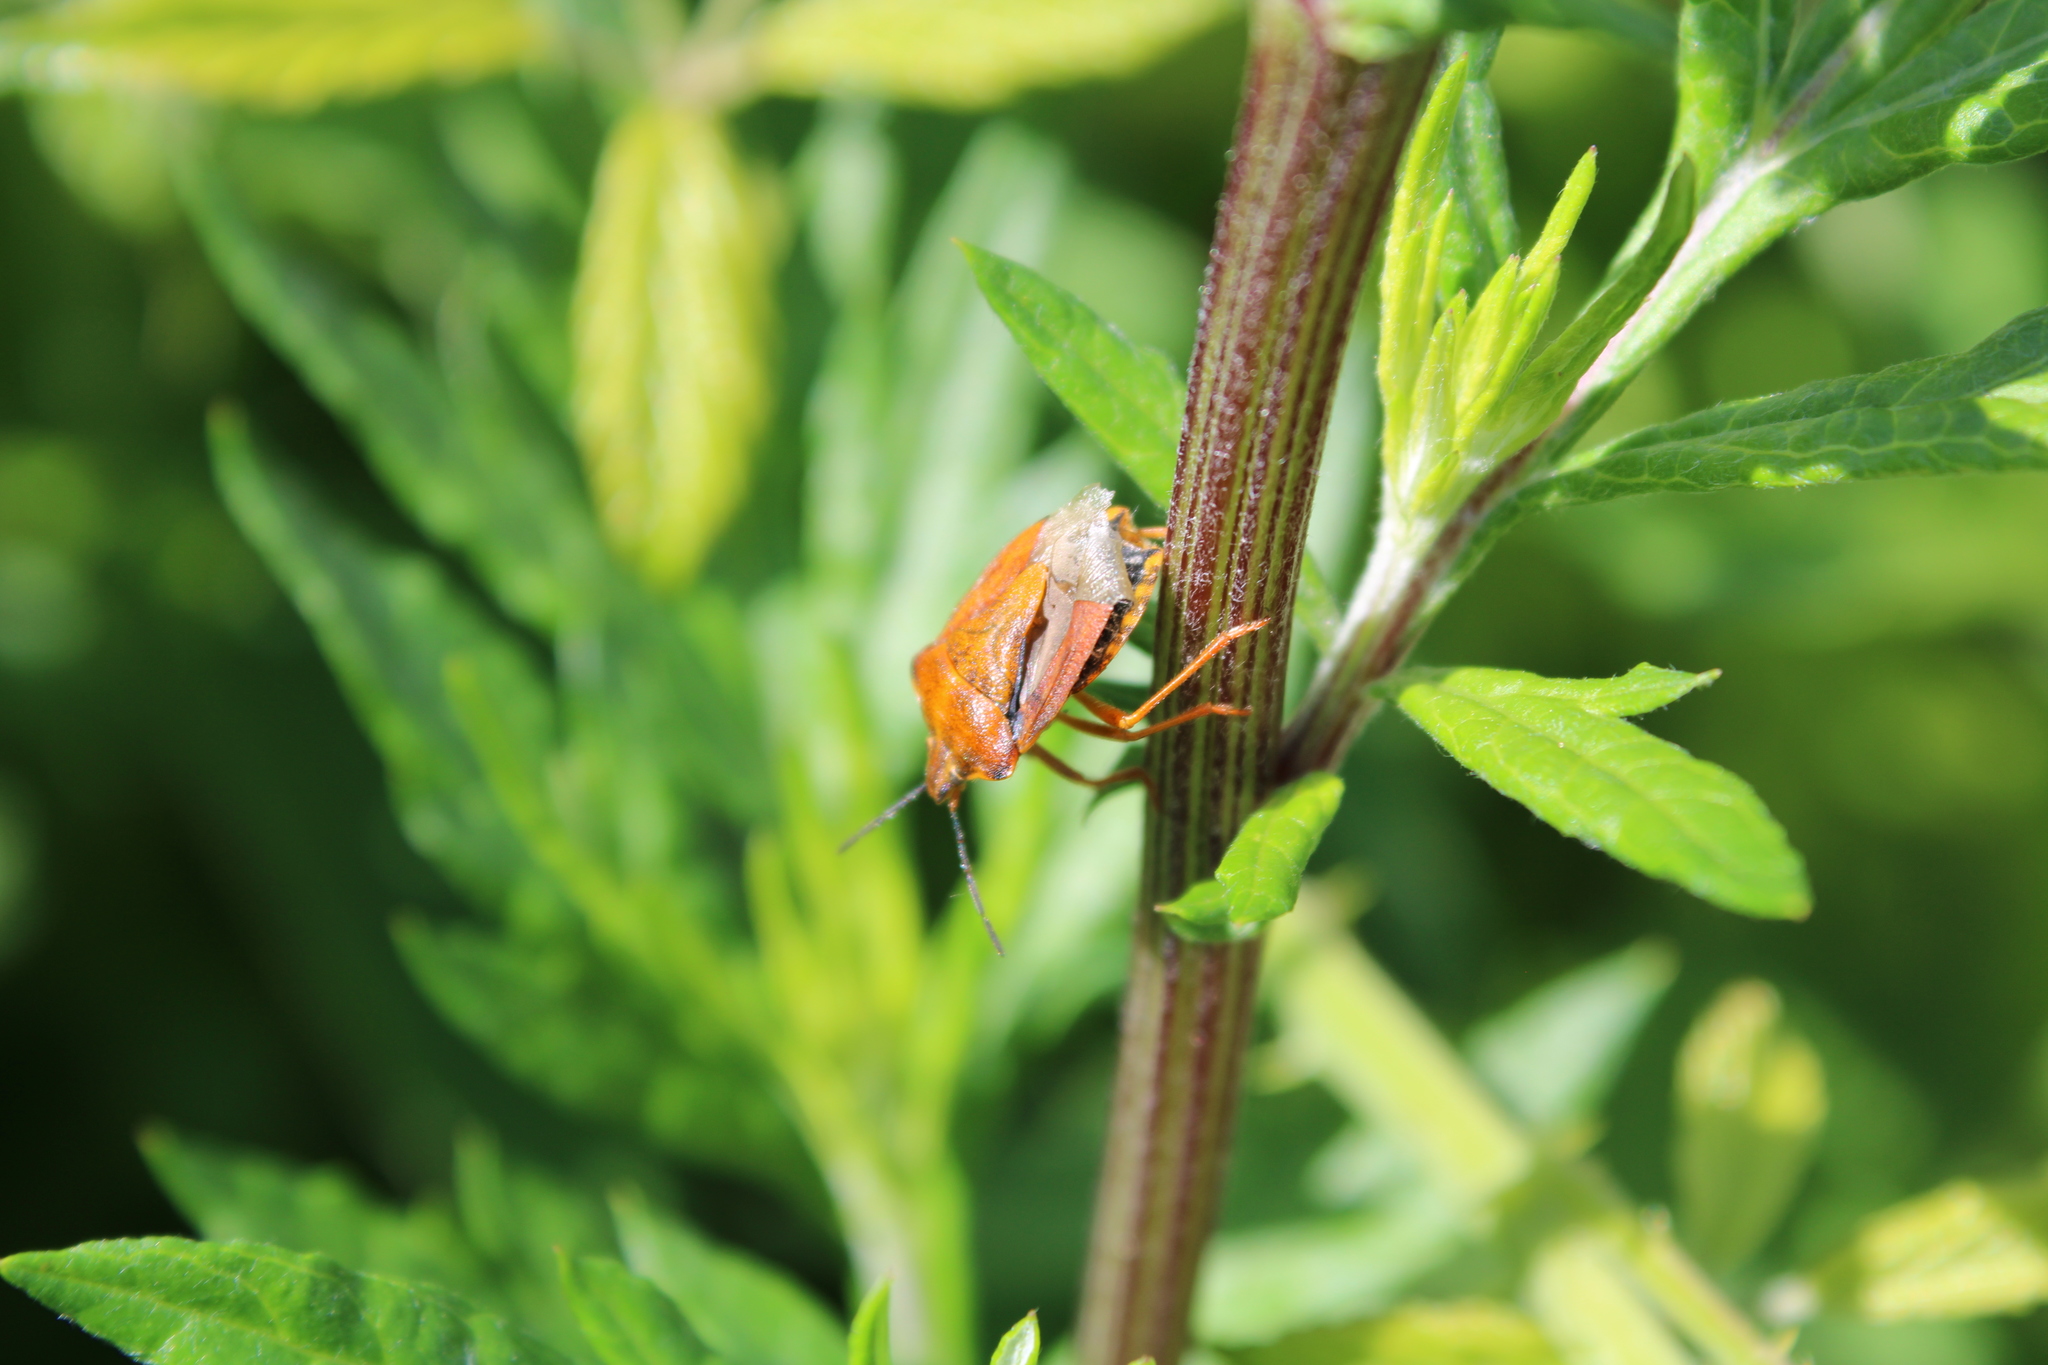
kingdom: Animalia
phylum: Arthropoda
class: Insecta
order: Hemiptera
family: Pentatomidae
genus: Carpocoris
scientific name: Carpocoris purpureipennis
